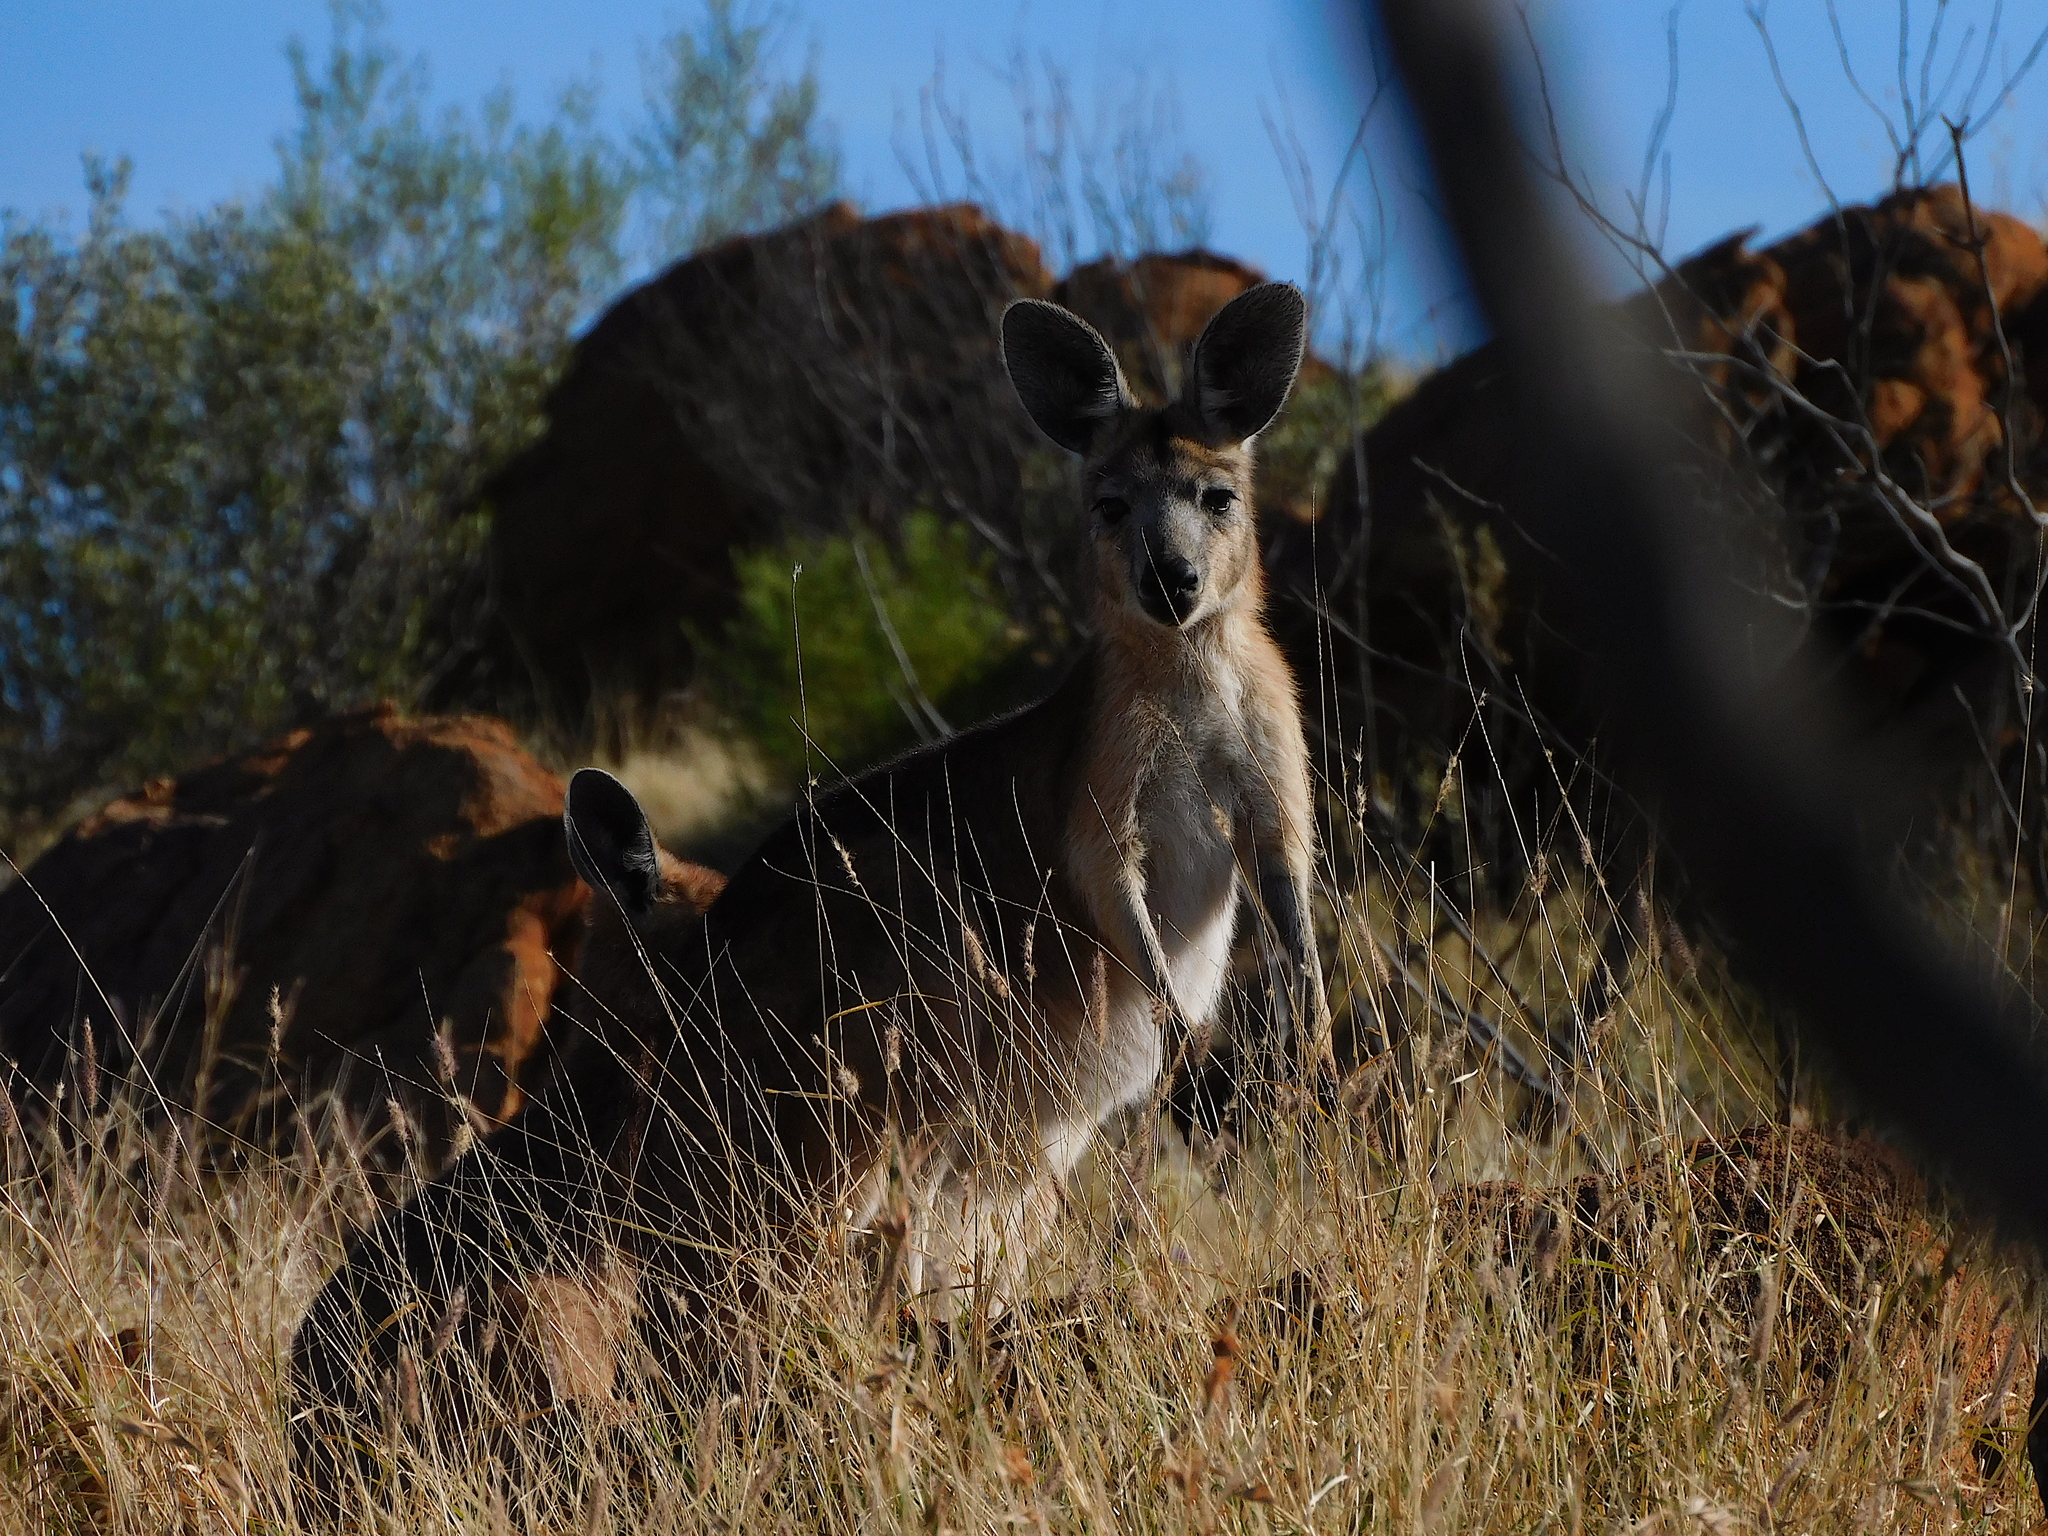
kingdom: Animalia
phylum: Chordata
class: Mammalia
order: Diprotodontia
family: Macropodidae
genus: Macropus
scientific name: Macropus robustus
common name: Eastern wallaroo
